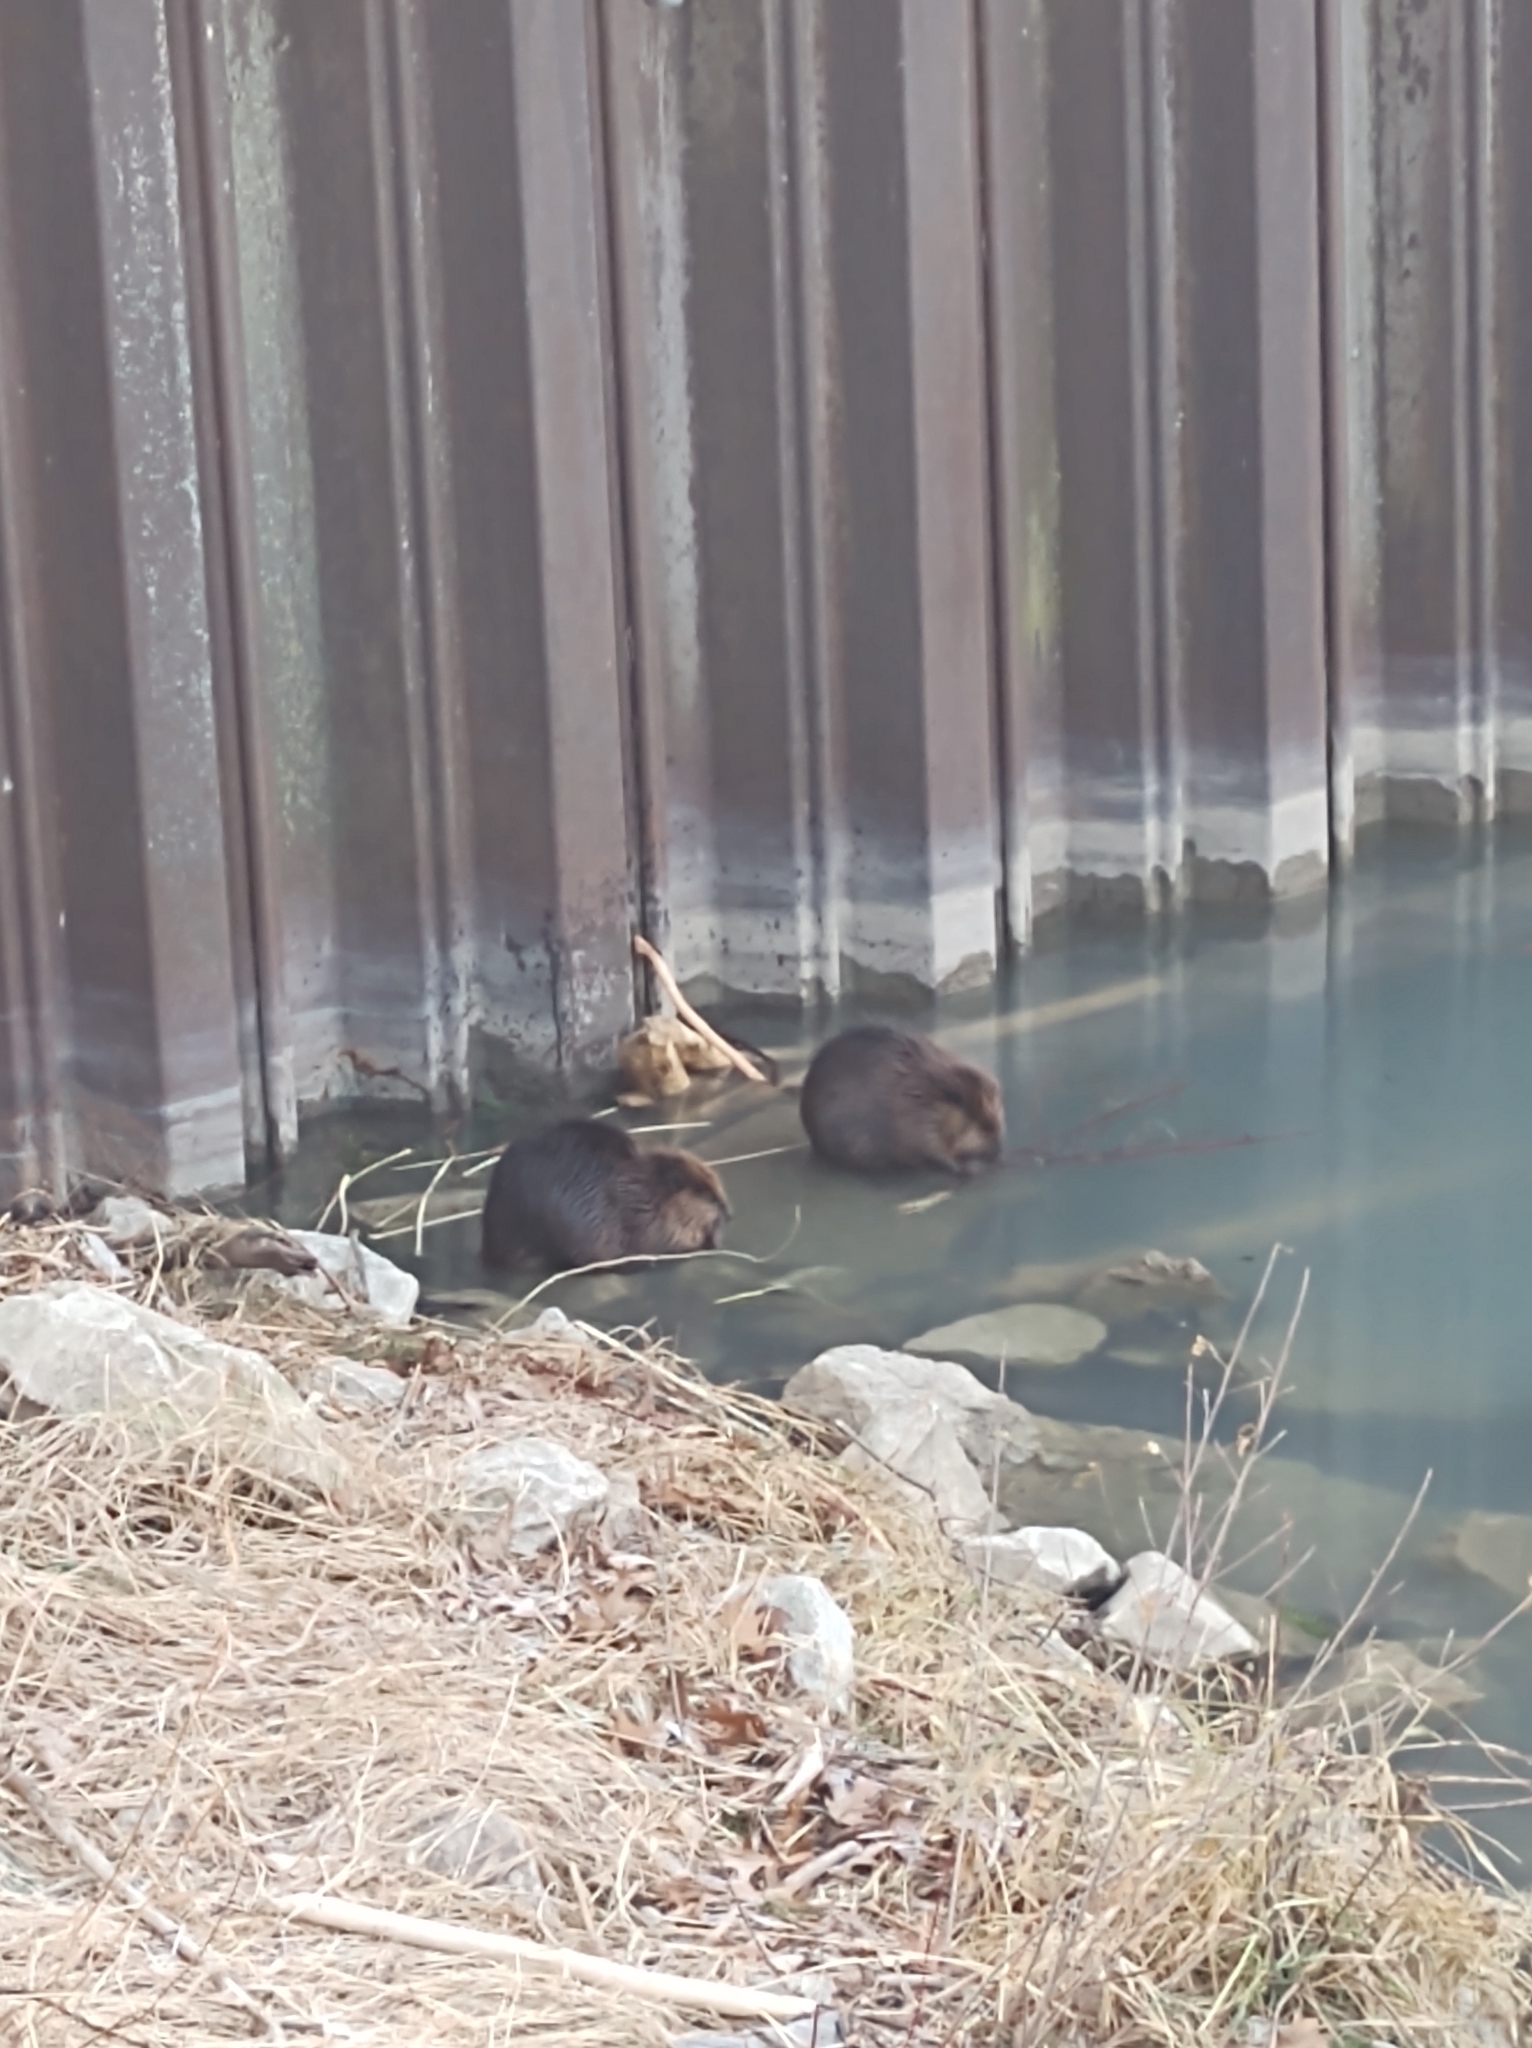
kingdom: Animalia
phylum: Chordata
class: Mammalia
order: Rodentia
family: Castoridae
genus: Castor
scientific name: Castor canadensis
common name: American beaver
